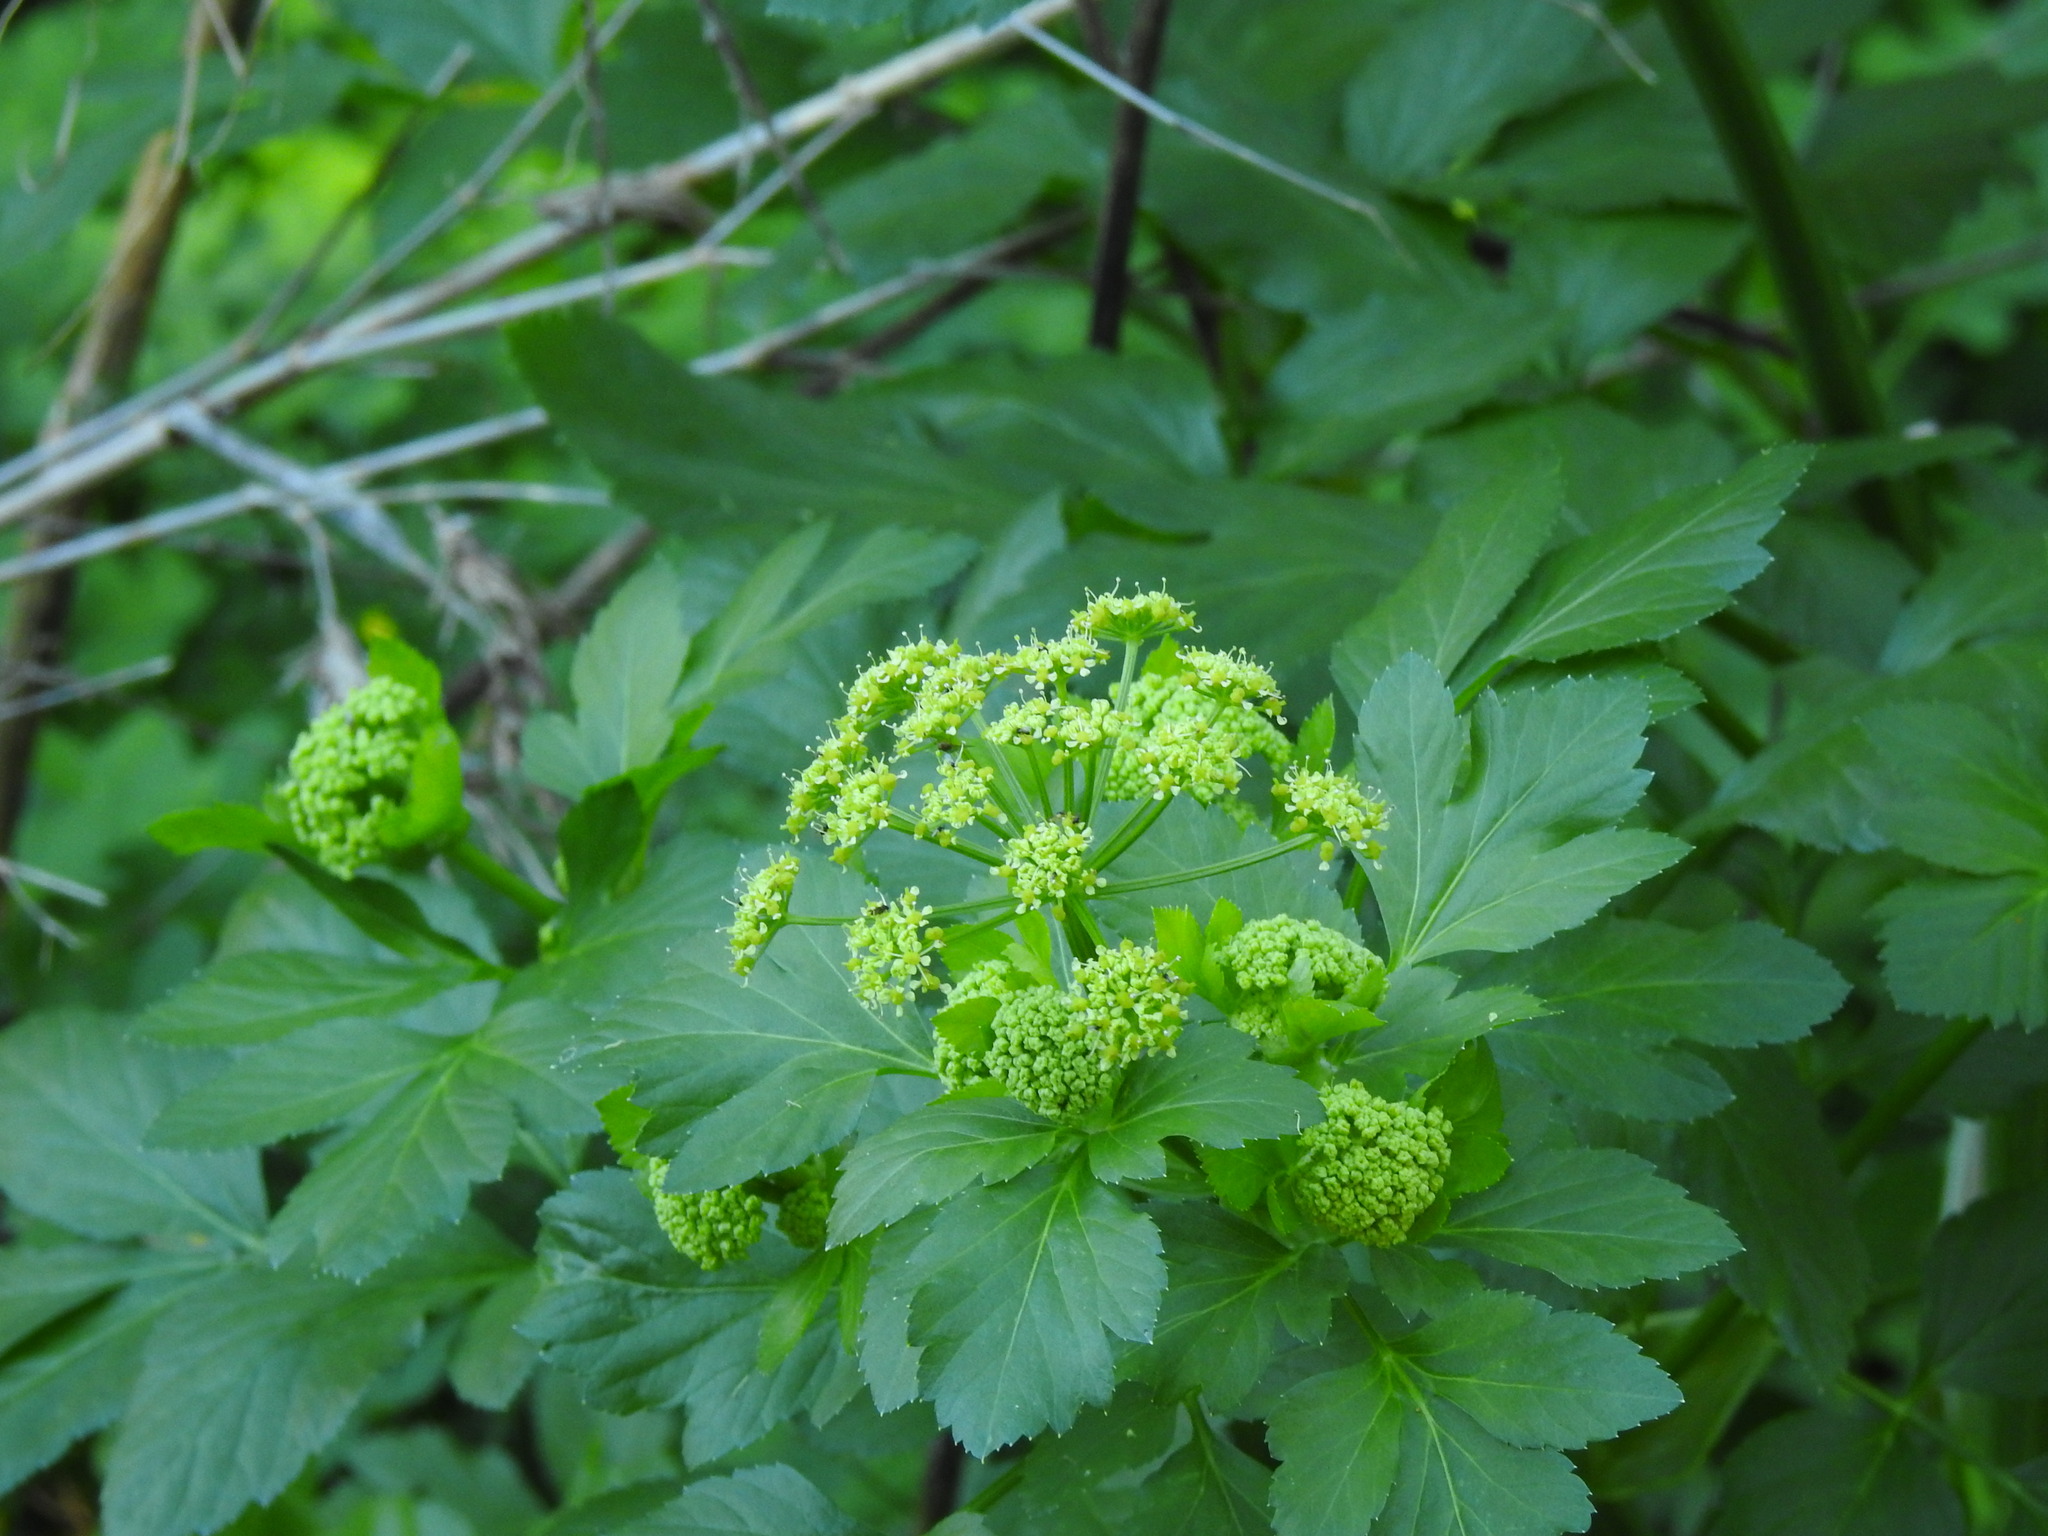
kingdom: Plantae
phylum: Tracheophyta
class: Magnoliopsida
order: Apiales
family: Apiaceae
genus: Smyrnium
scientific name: Smyrnium olusatrum
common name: Alexanders
